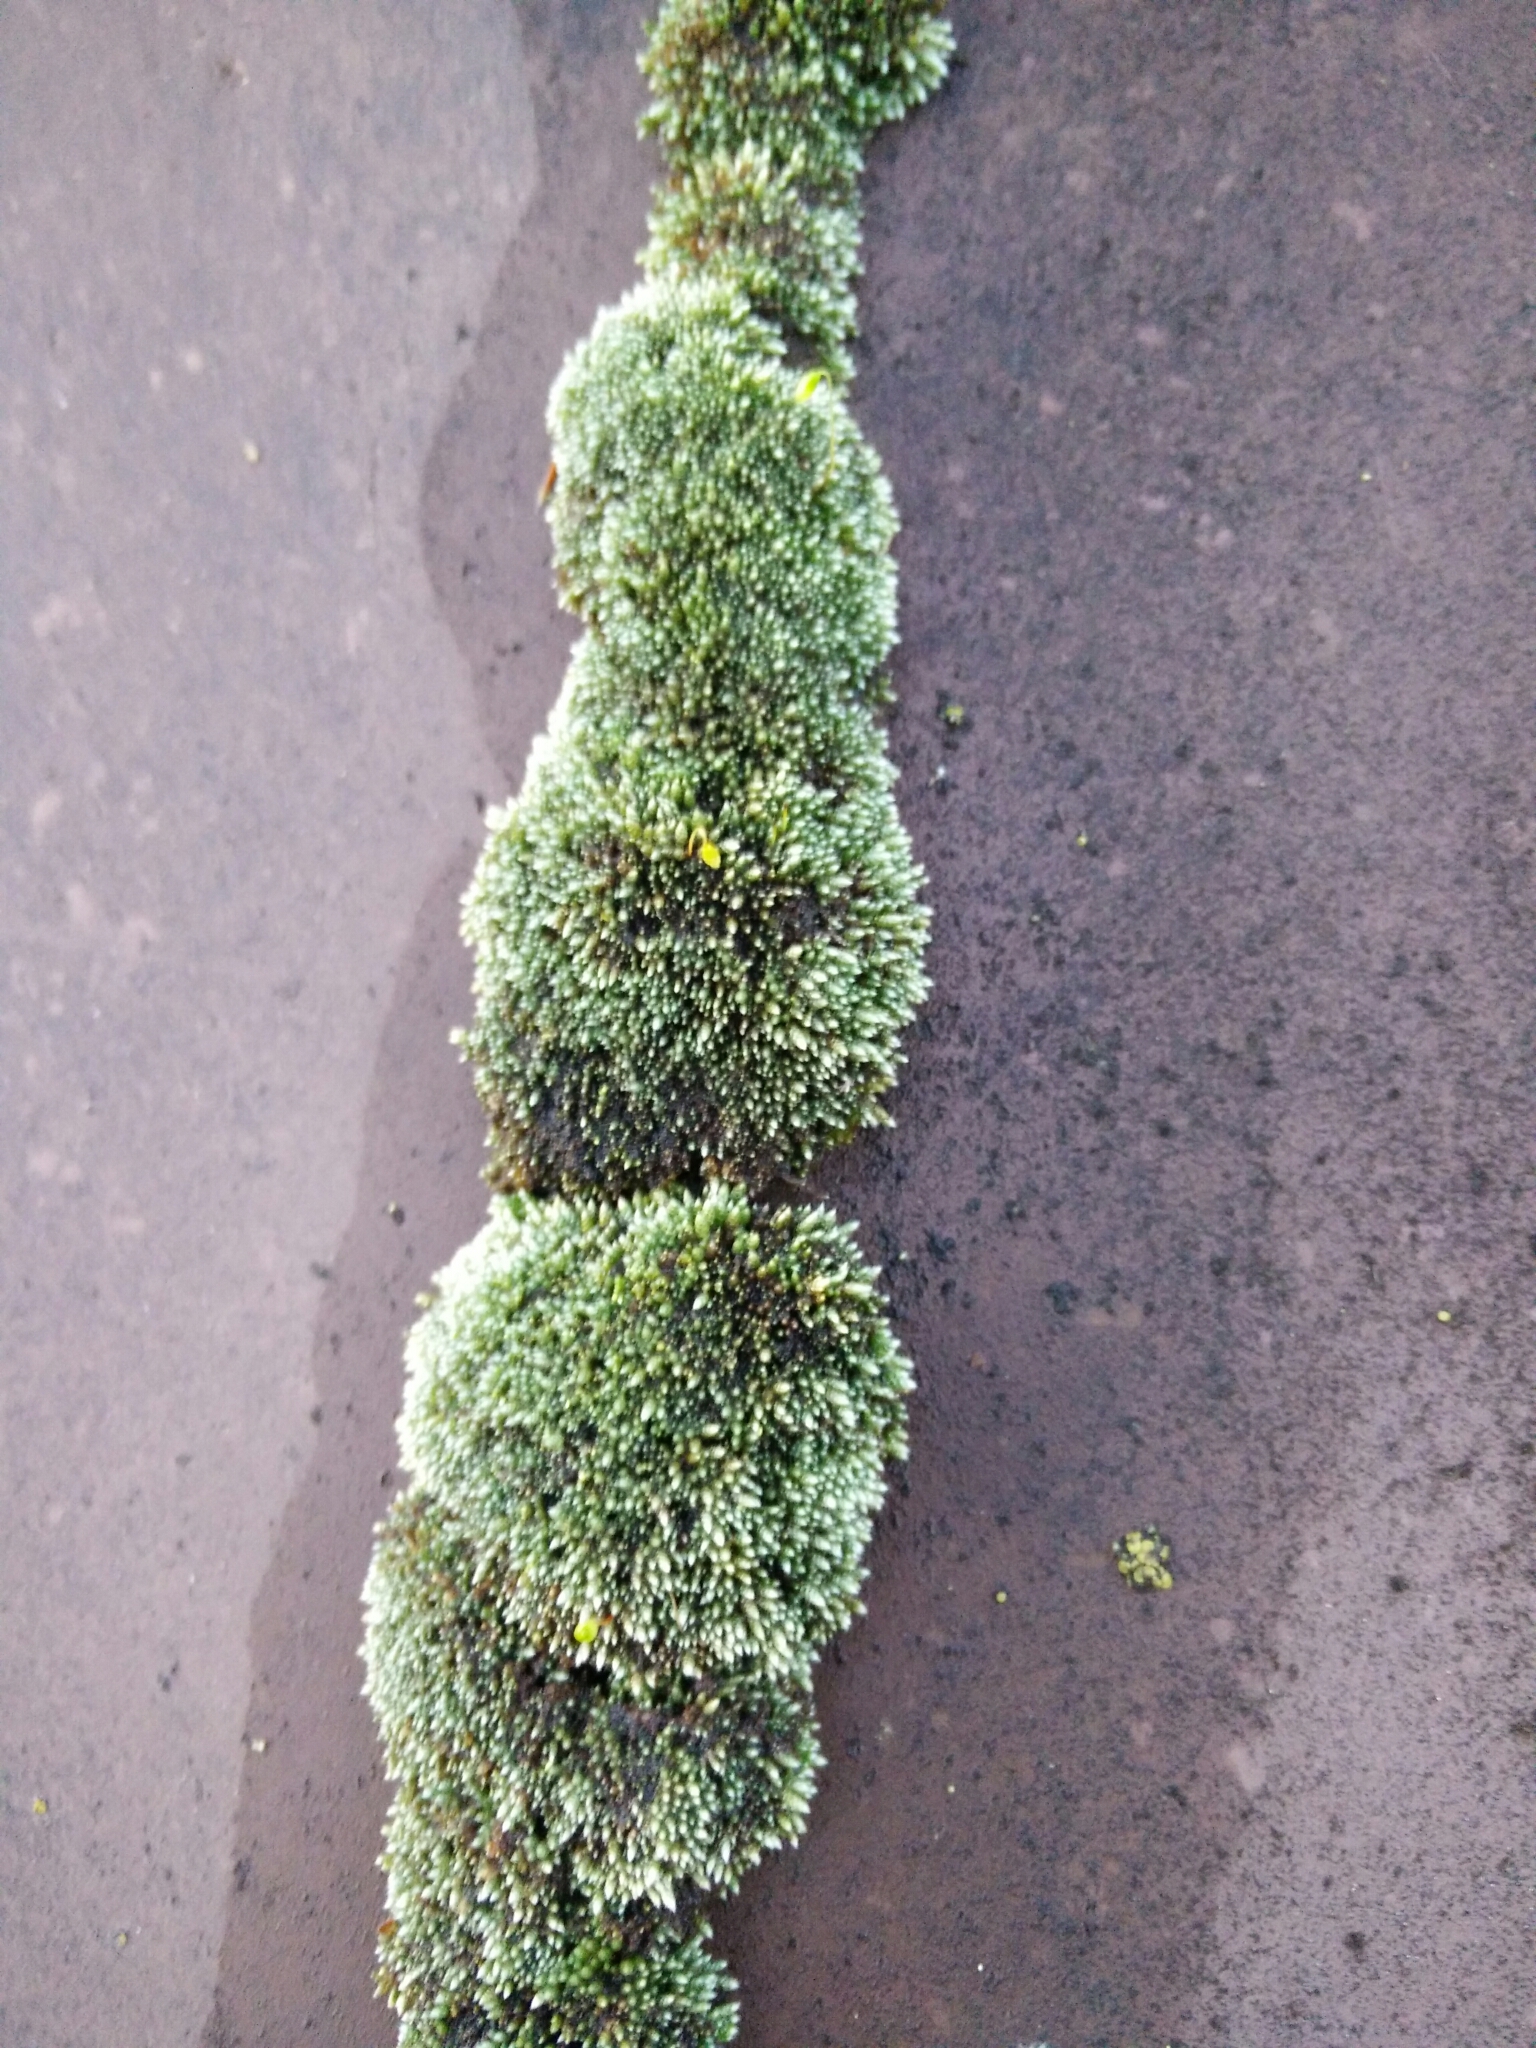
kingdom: Plantae
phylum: Bryophyta
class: Bryopsida
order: Bryales
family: Bryaceae
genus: Bryum
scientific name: Bryum argenteum
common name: Silver-moss
